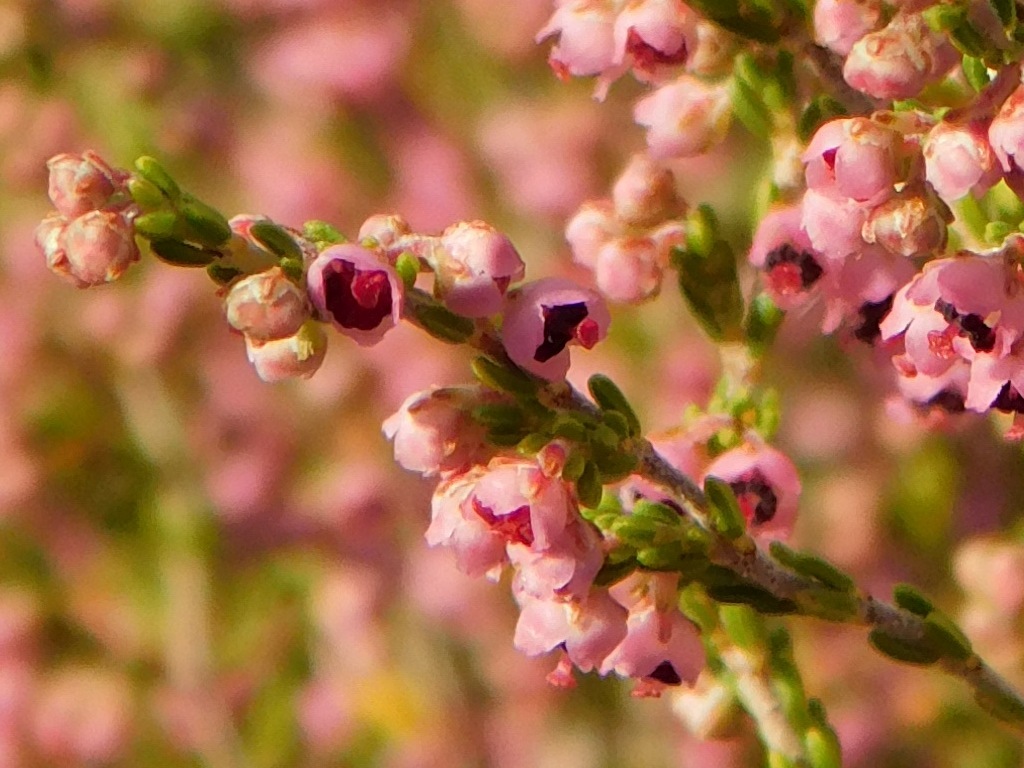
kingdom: Plantae
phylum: Tracheophyta
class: Magnoliopsida
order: Ericales
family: Ericaceae
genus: Erica
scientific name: Erica peltata
